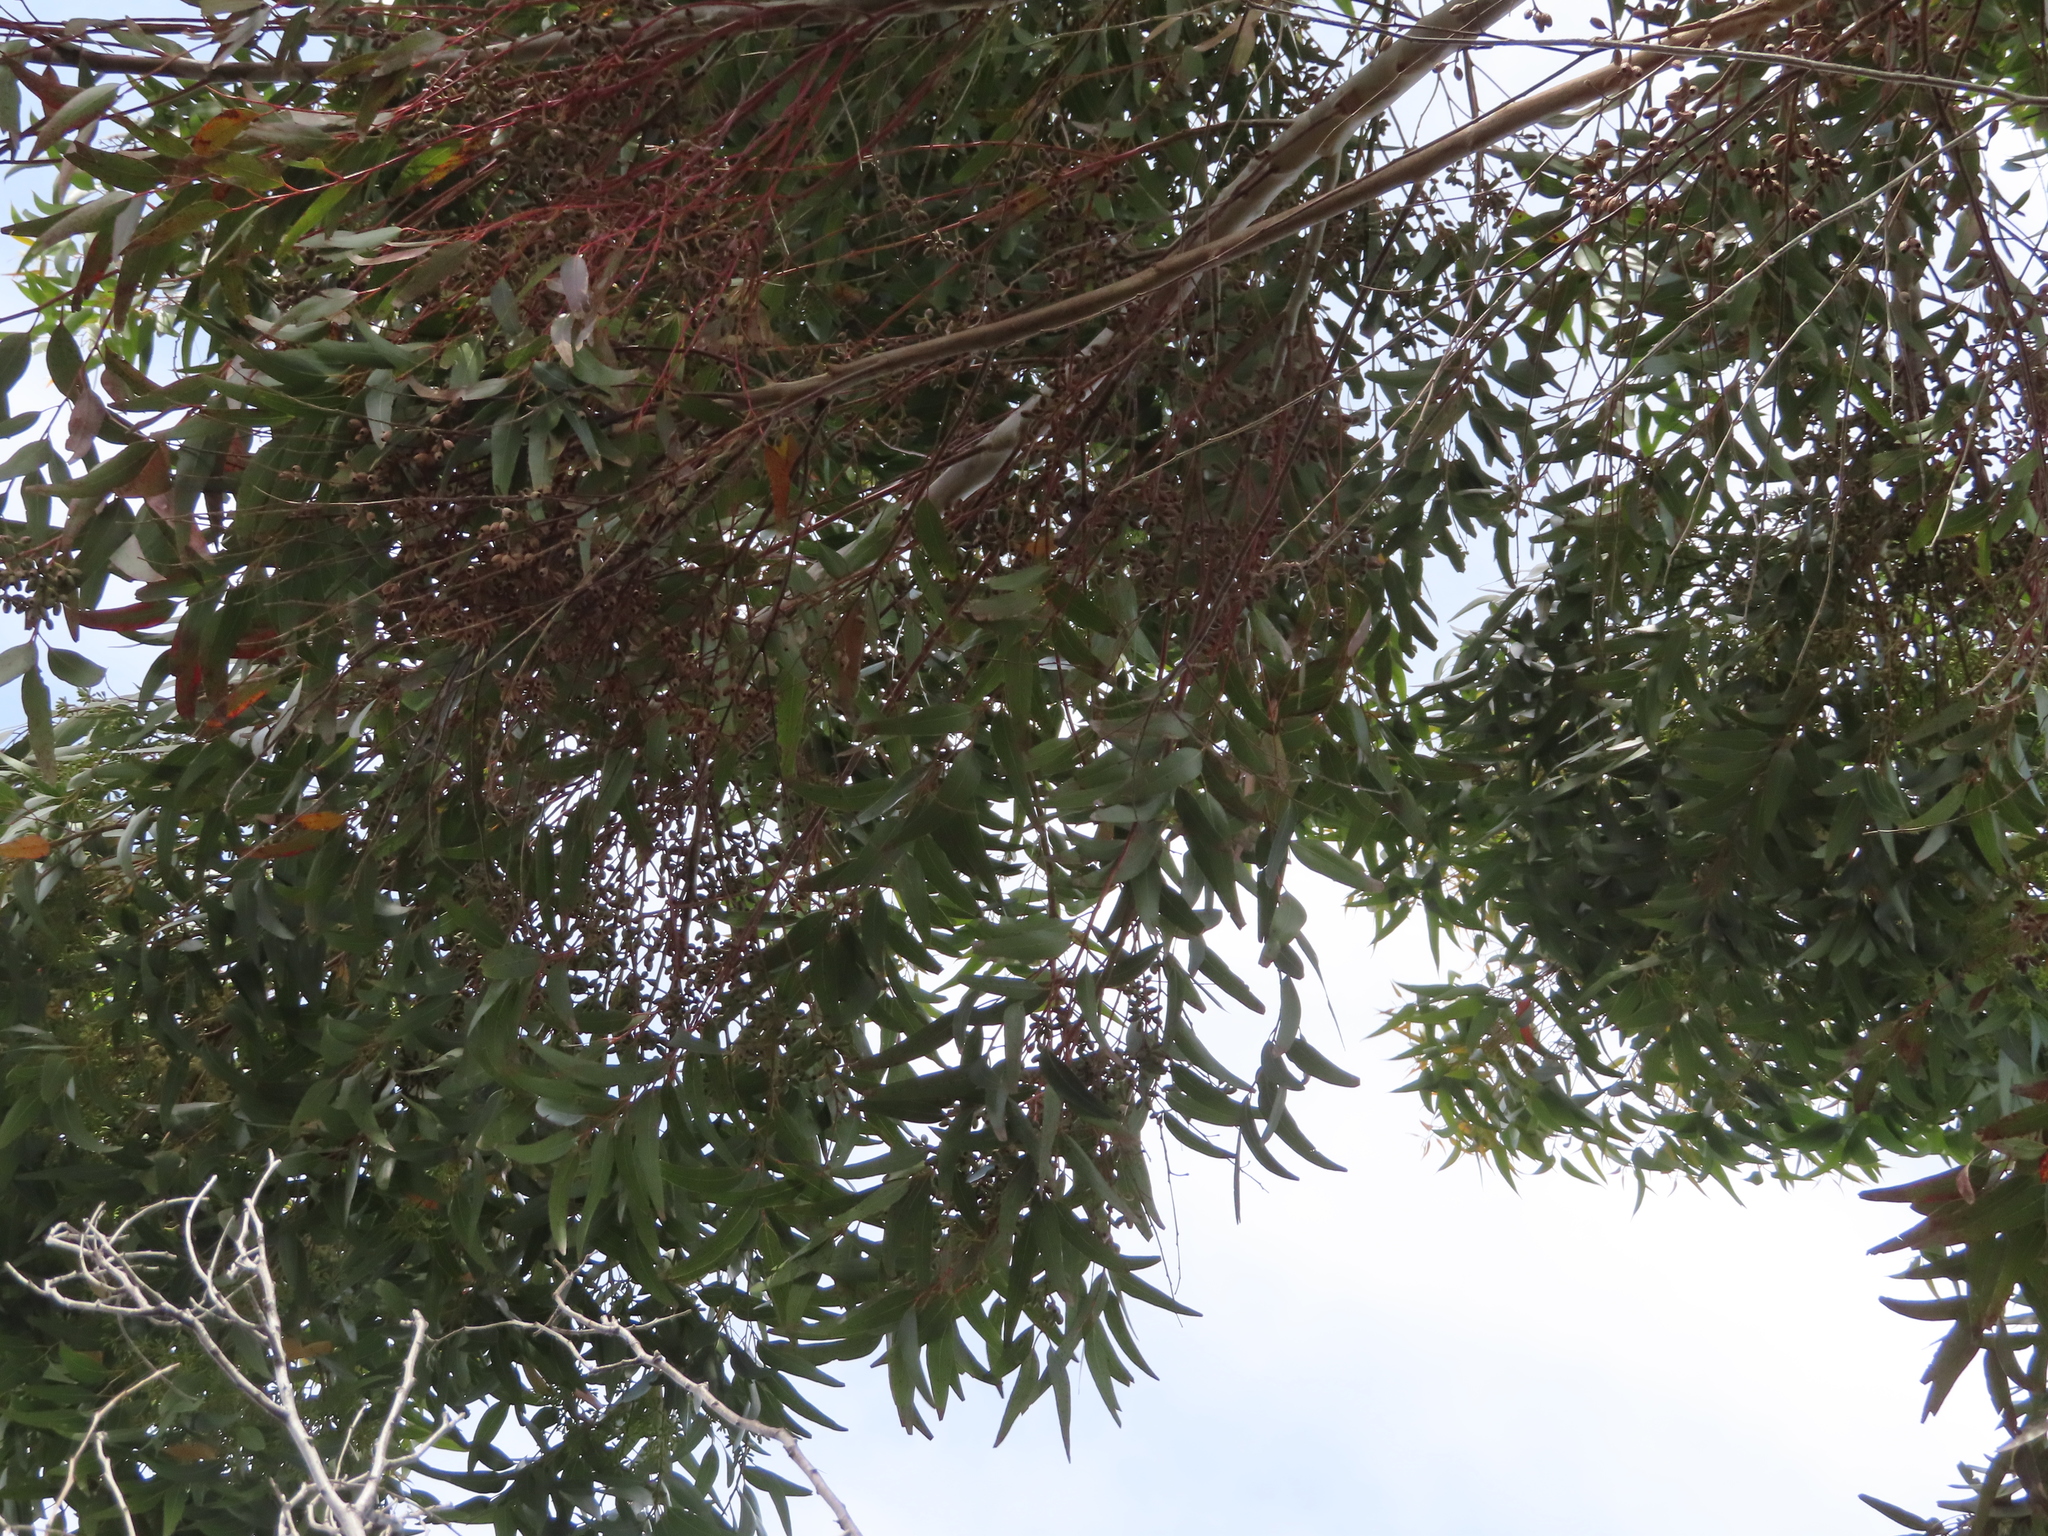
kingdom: Plantae
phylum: Tracheophyta
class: Magnoliopsida
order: Myrtales
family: Myrtaceae
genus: Eucalyptus
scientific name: Eucalyptus cladocalyx
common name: Sugargum
